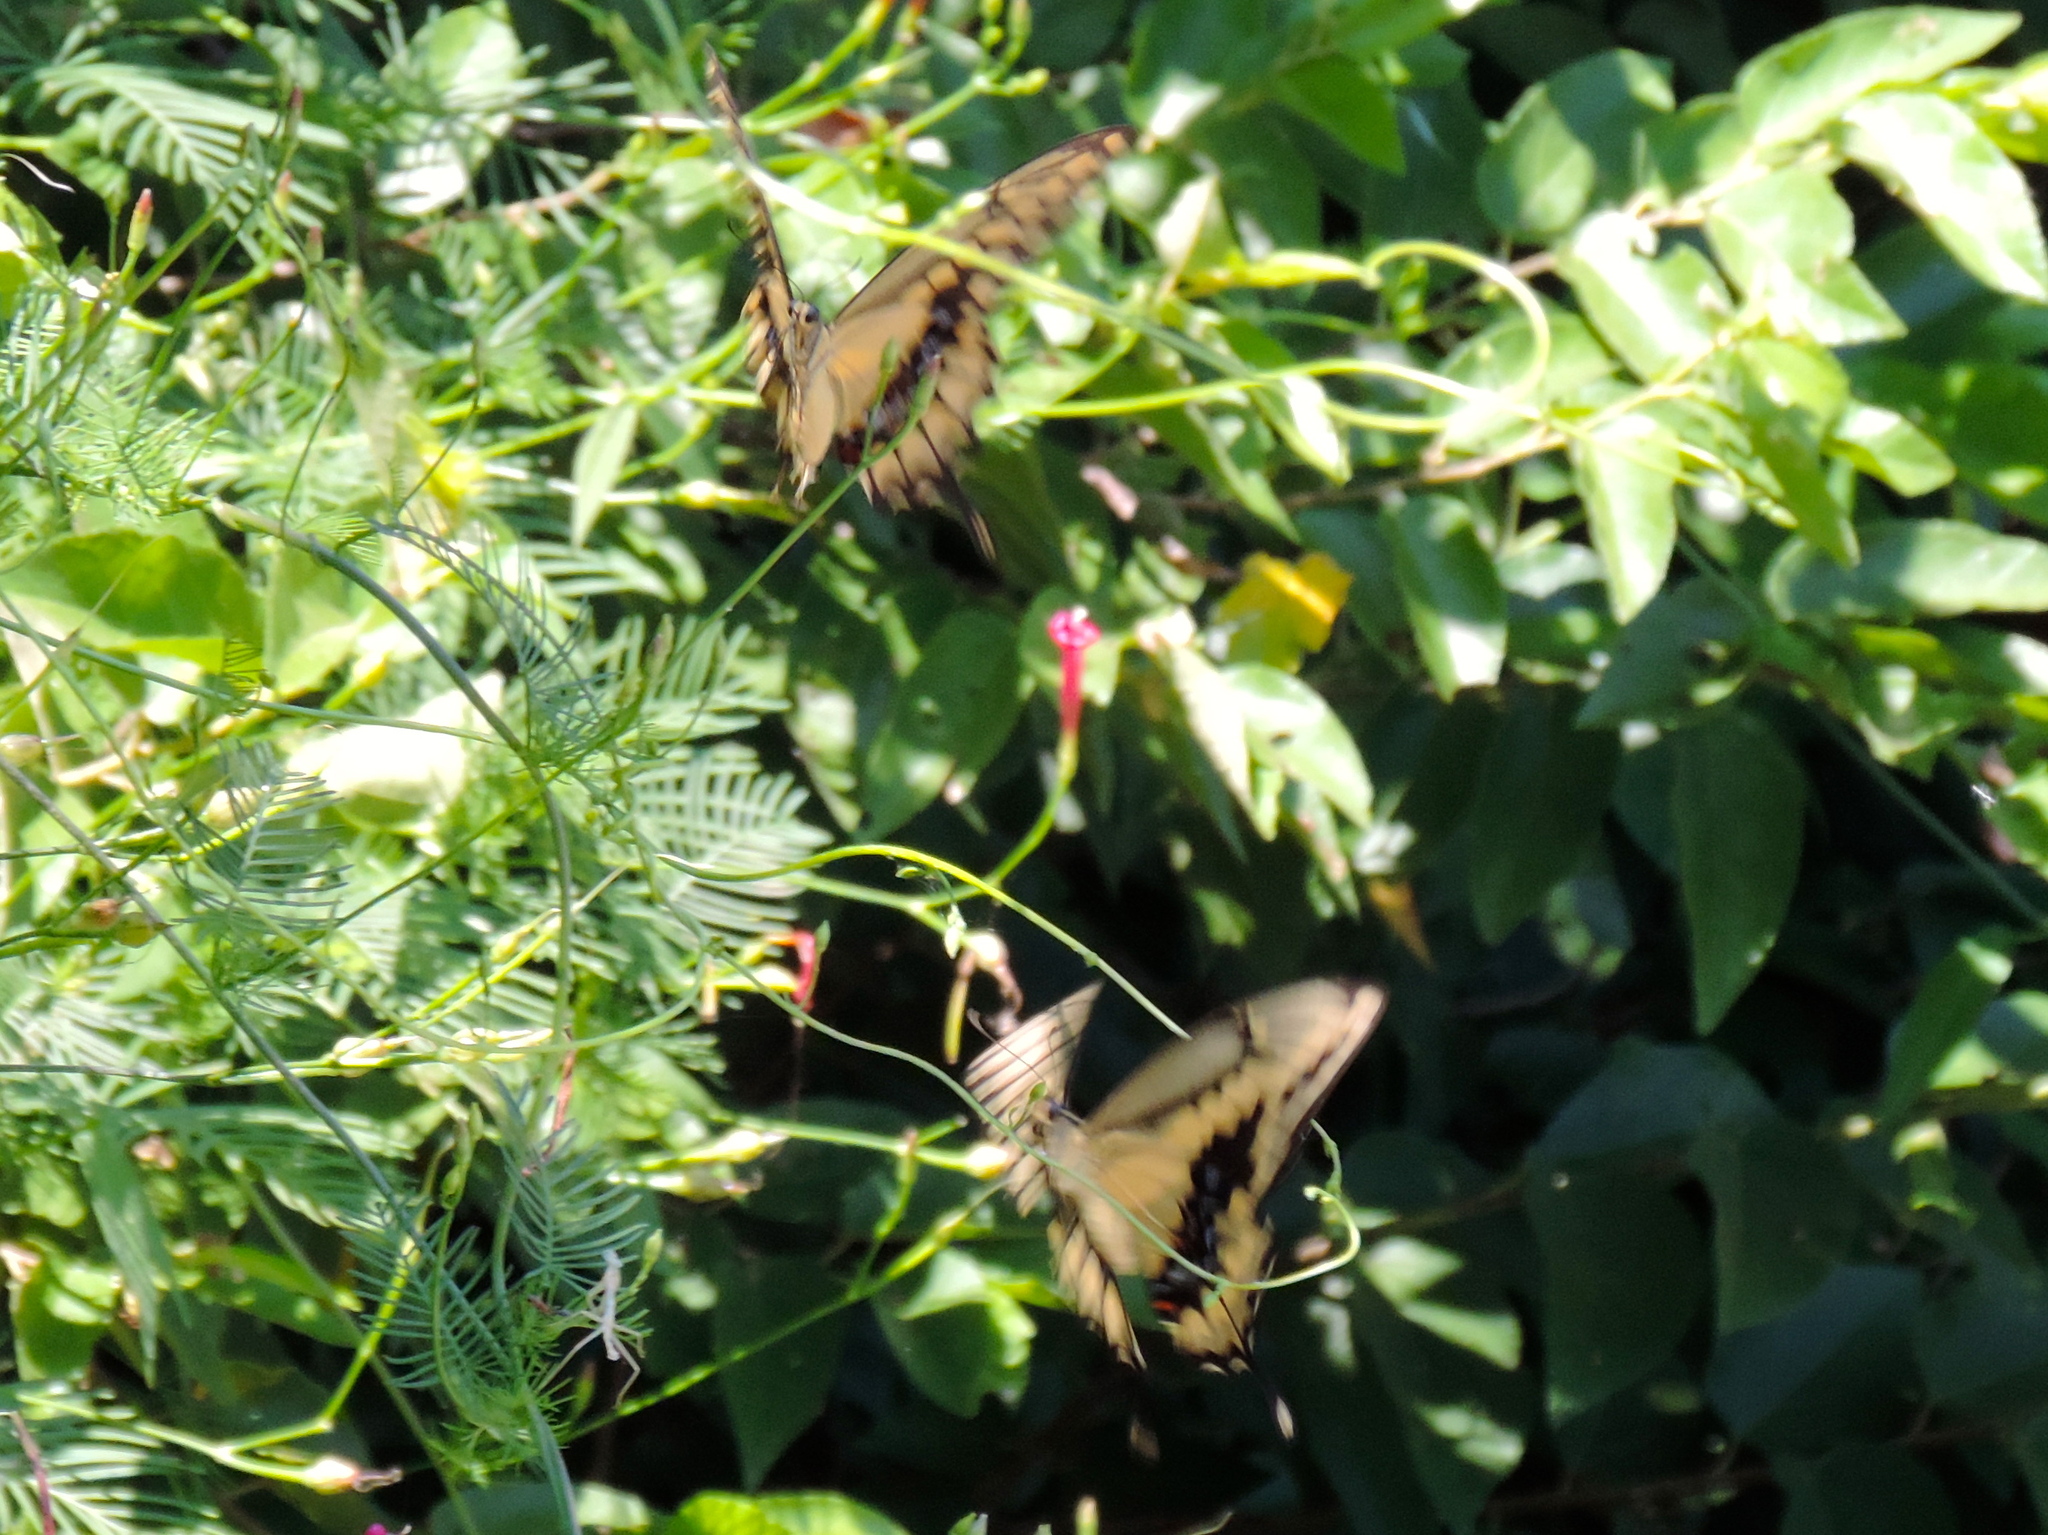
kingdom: Animalia
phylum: Arthropoda
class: Insecta
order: Lepidoptera
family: Papilionidae
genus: Papilio
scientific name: Papilio rumiko
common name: Western giant swallowtail
